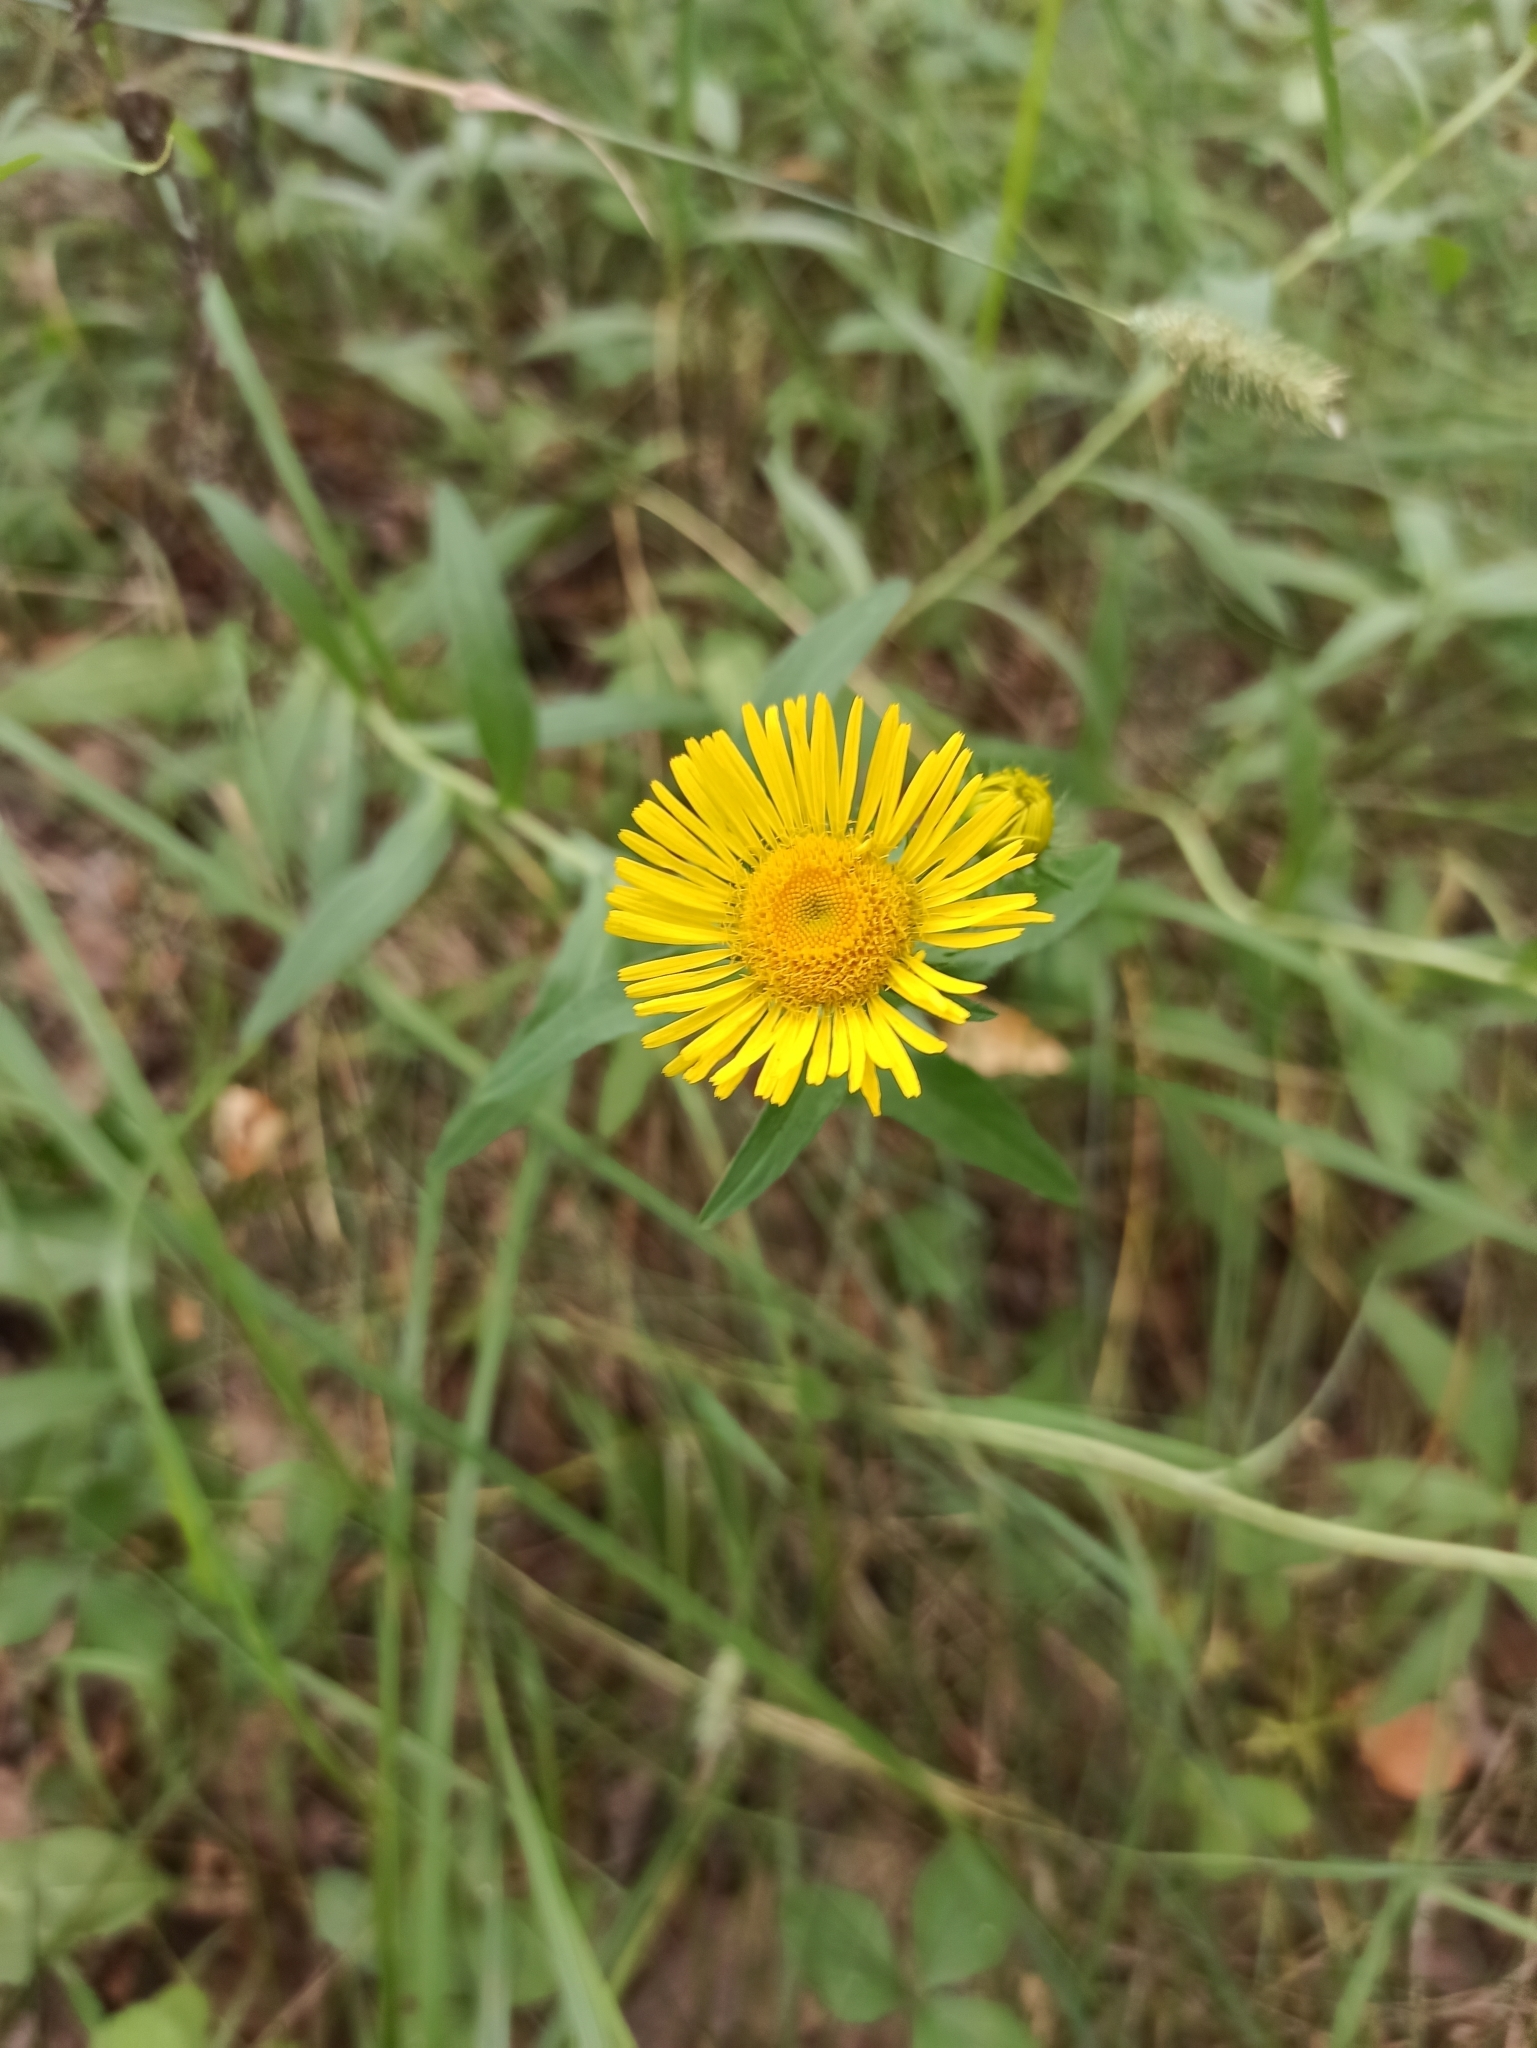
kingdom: Plantae
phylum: Tracheophyta
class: Magnoliopsida
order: Asterales
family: Asteraceae
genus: Pentanema
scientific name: Pentanema britannicum
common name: British elecampane
